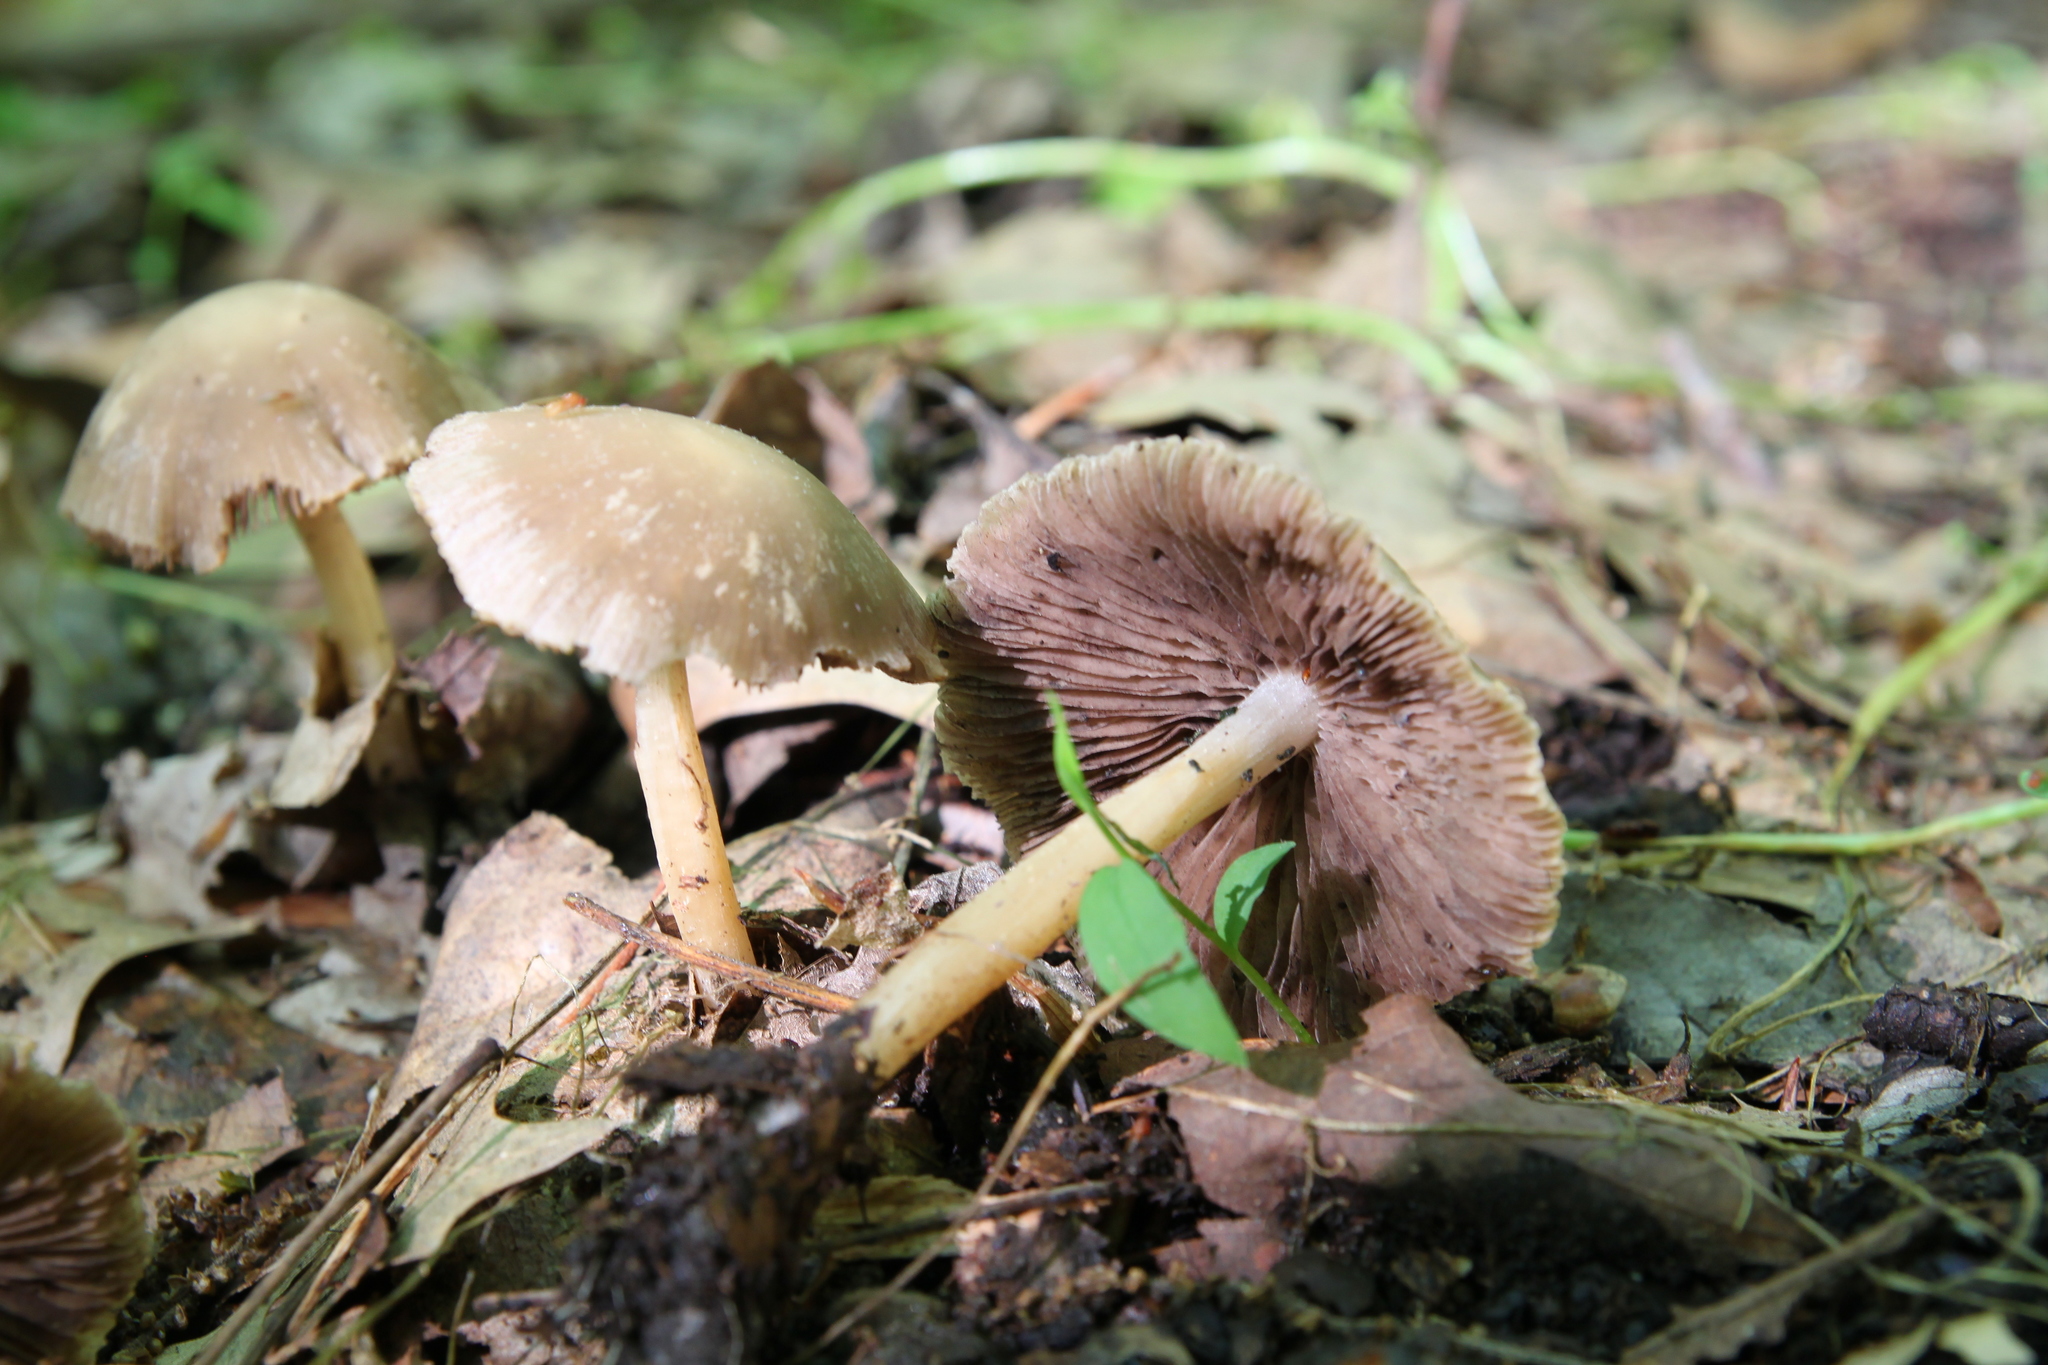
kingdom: Fungi
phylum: Basidiomycota
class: Agaricomycetes
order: Agaricales
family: Psathyrellaceae
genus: Candolleomyces
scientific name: Candolleomyces candolleanus
